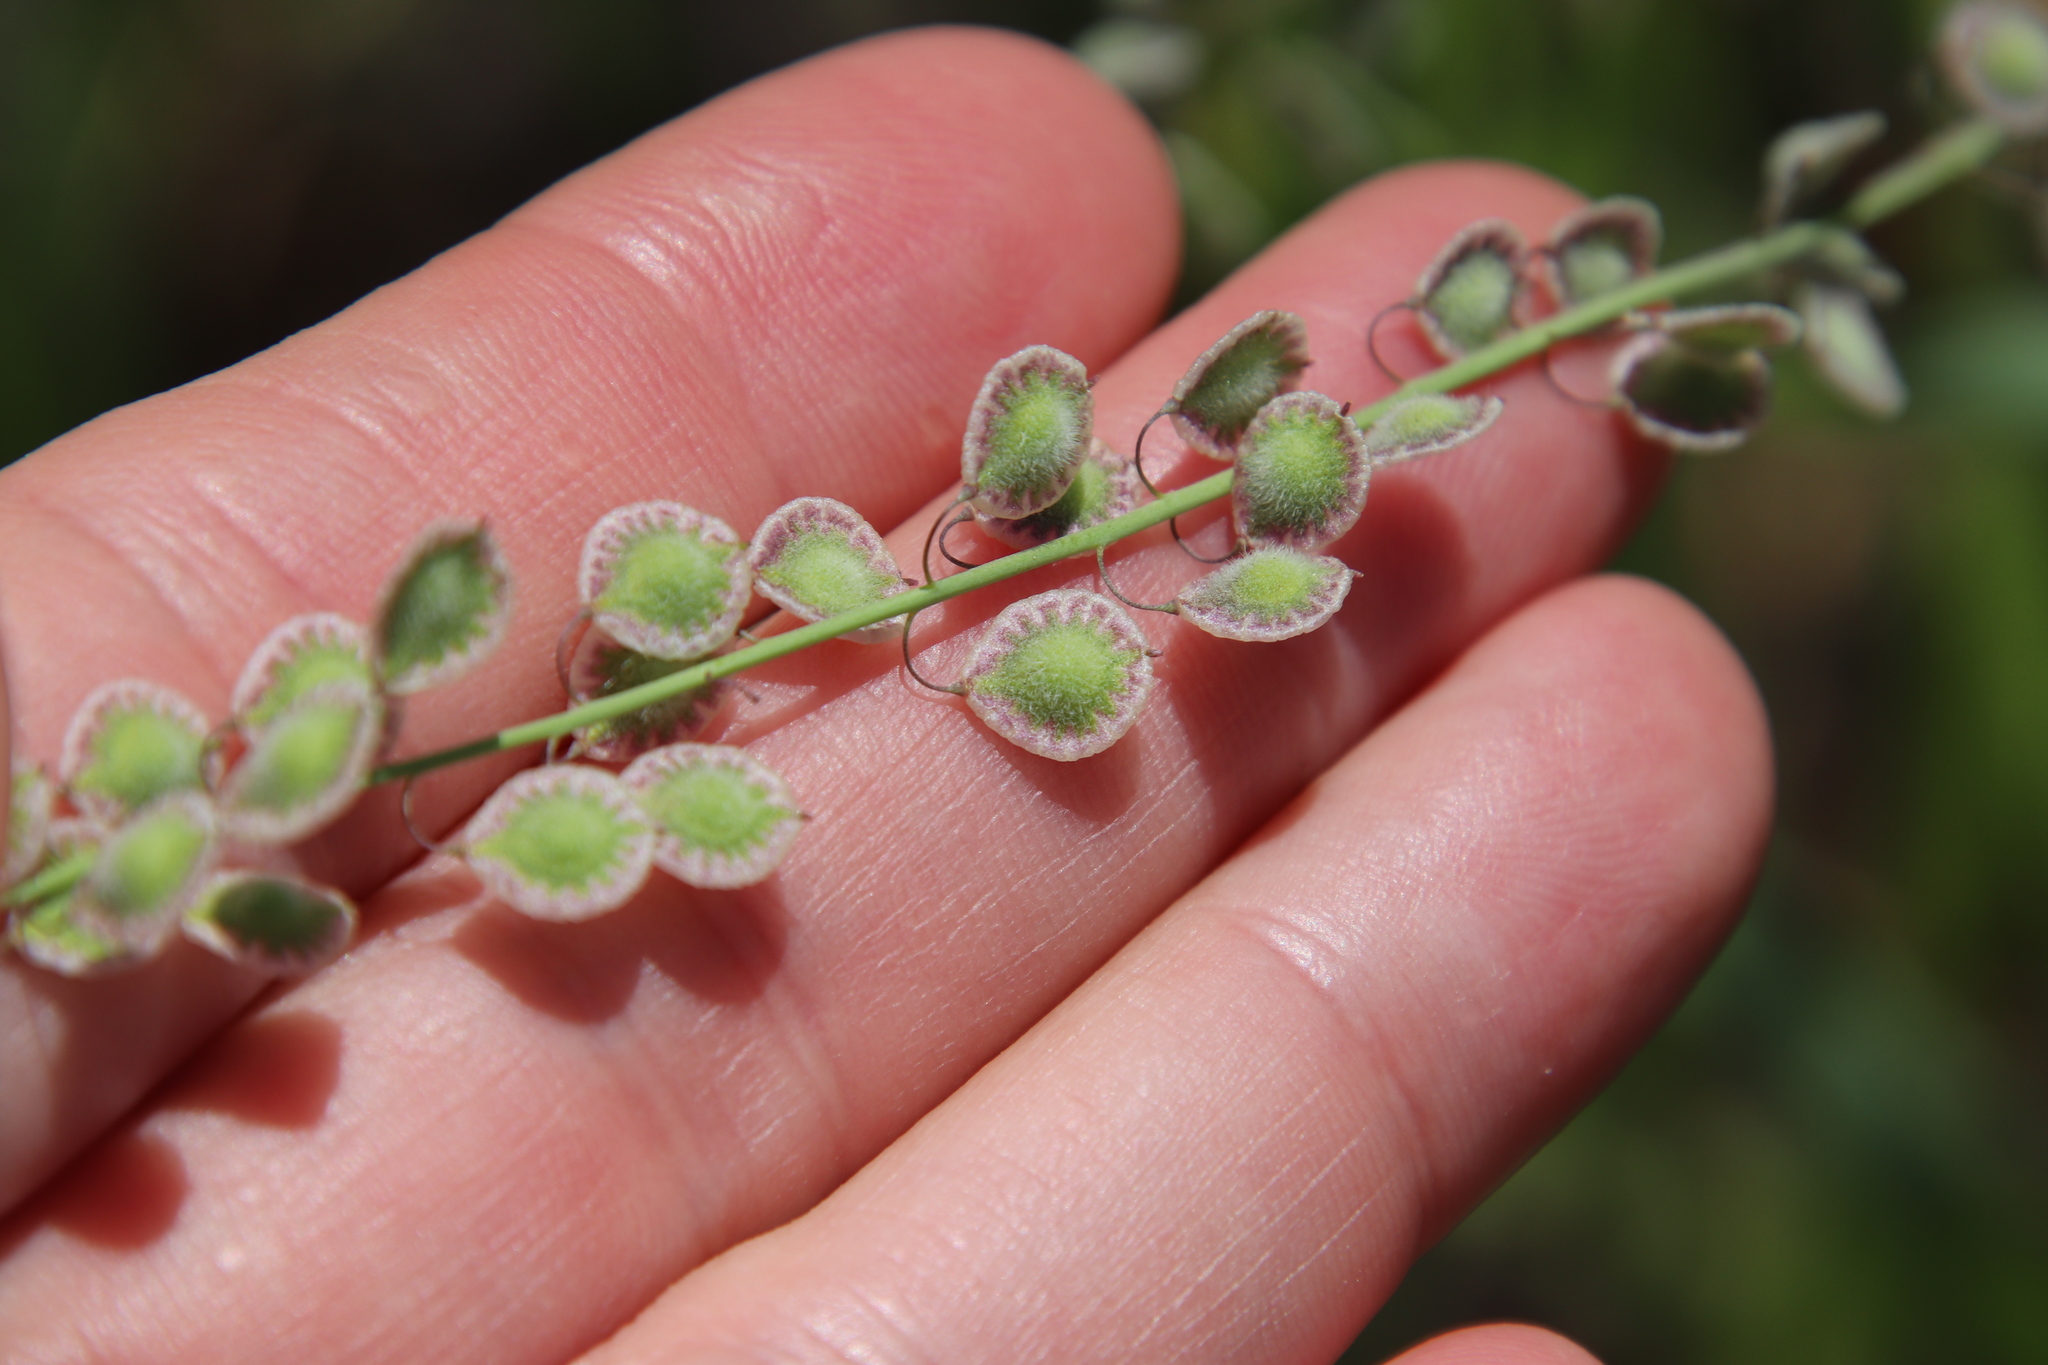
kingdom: Plantae
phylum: Tracheophyta
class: Magnoliopsida
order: Brassicales
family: Brassicaceae
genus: Thysanocarpus
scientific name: Thysanocarpus curvipes
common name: Sand fringepod
